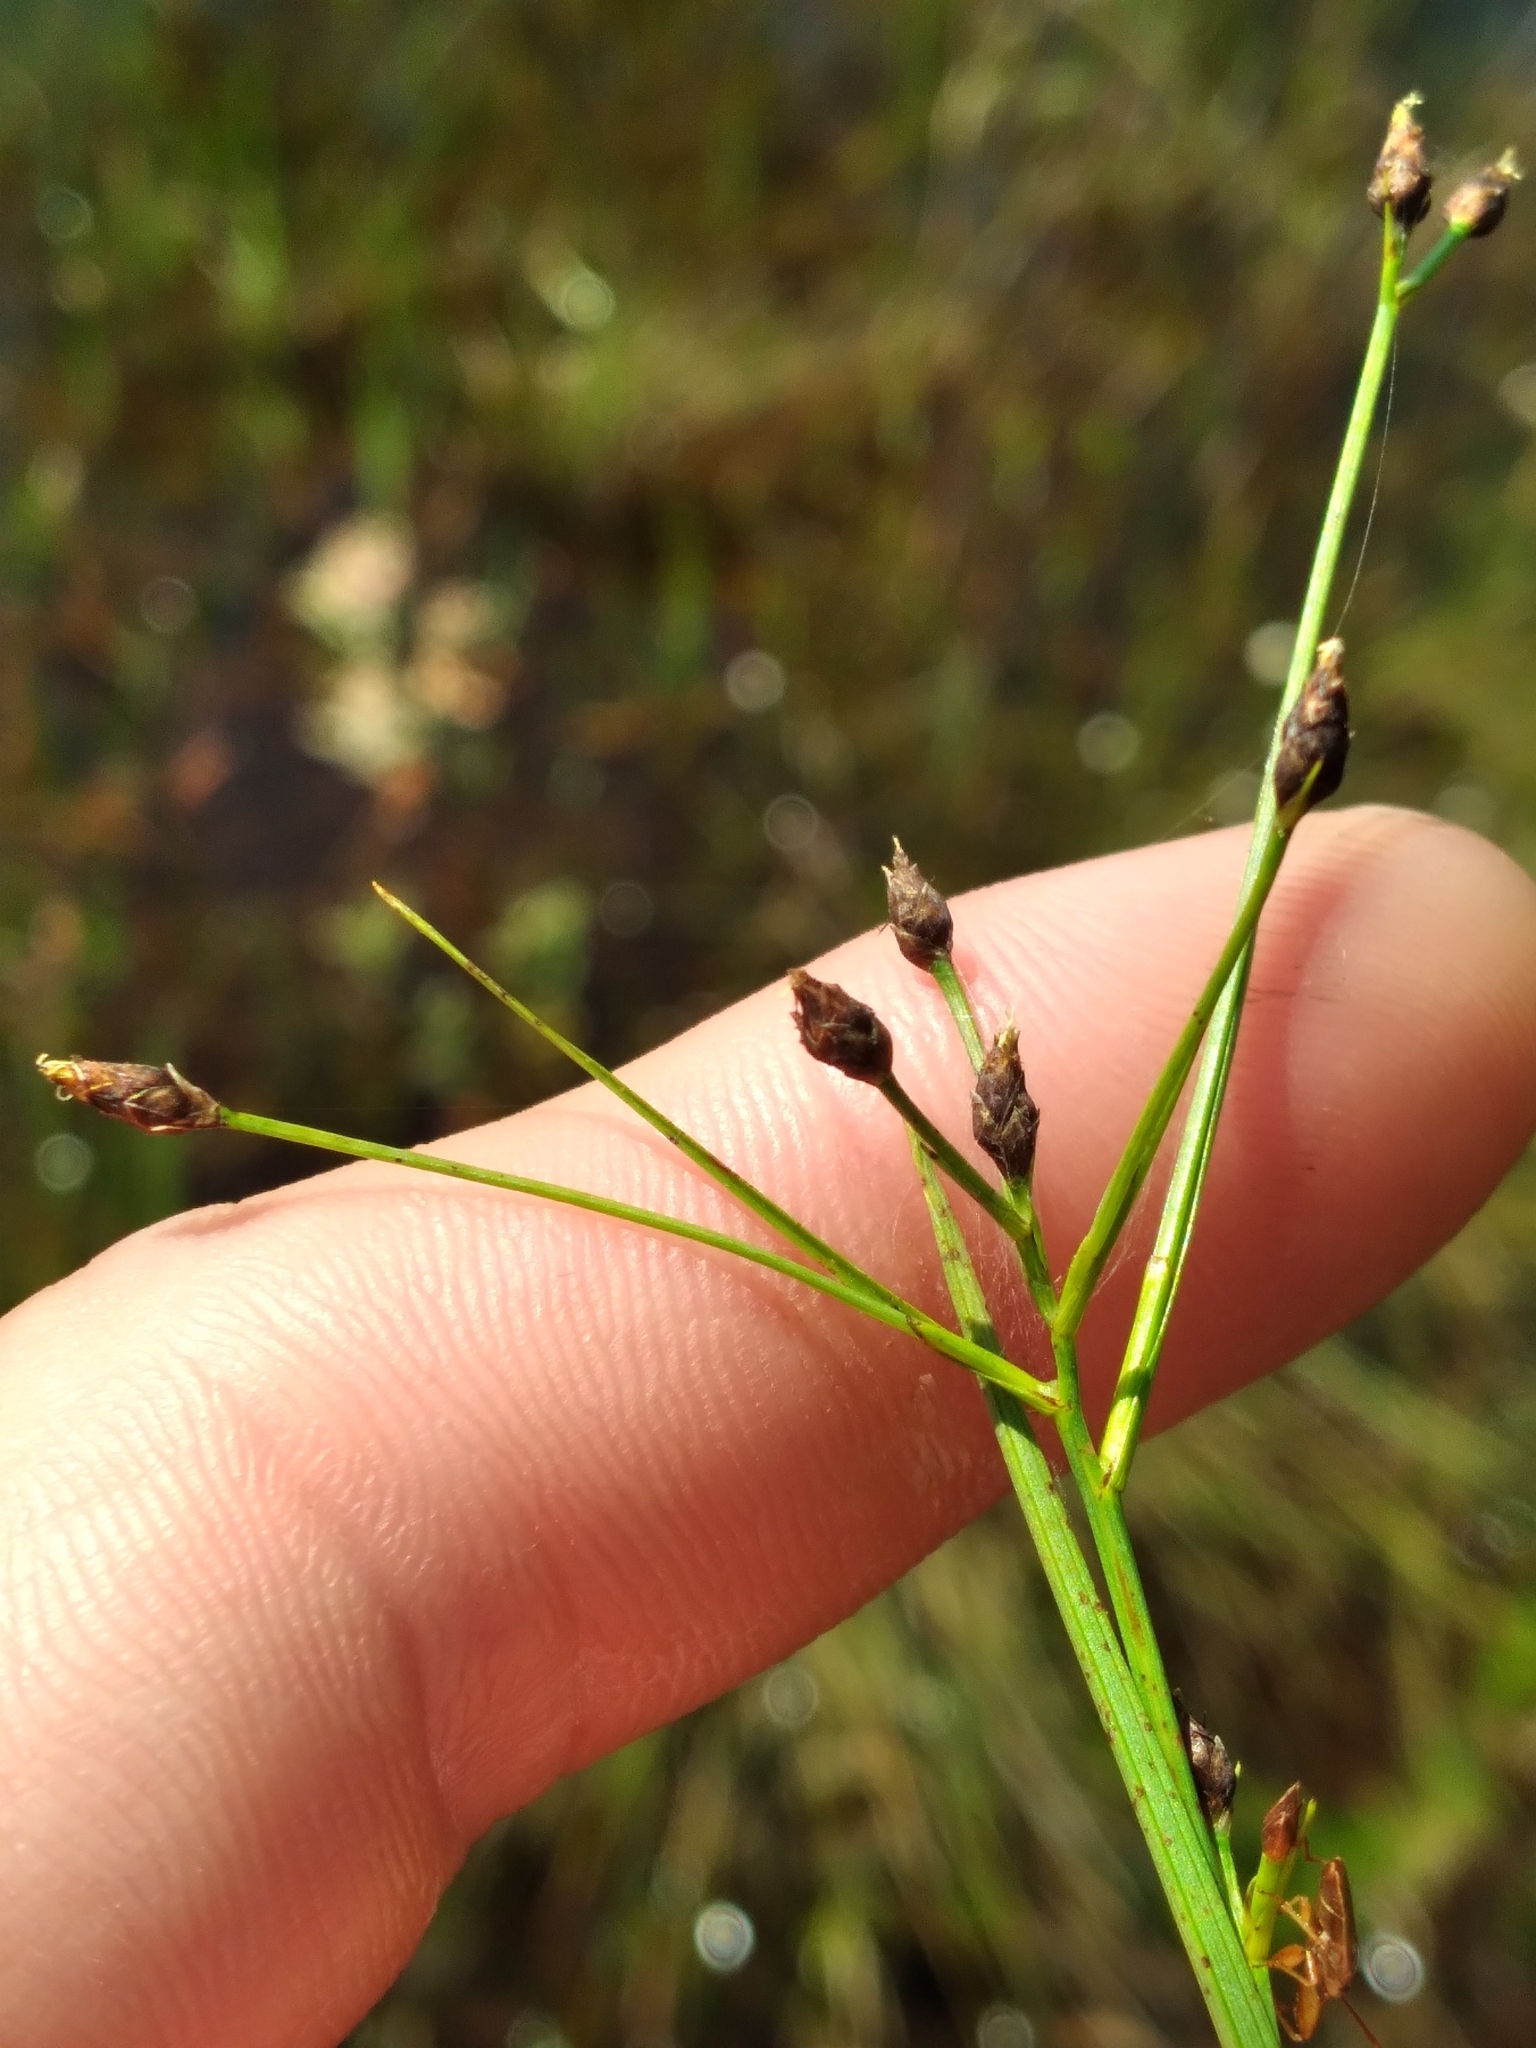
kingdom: Plantae
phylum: Tracheophyta
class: Liliopsida
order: Poales
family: Cyperaceae
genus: Rhynchospora
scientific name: Rhynchospora nitens
